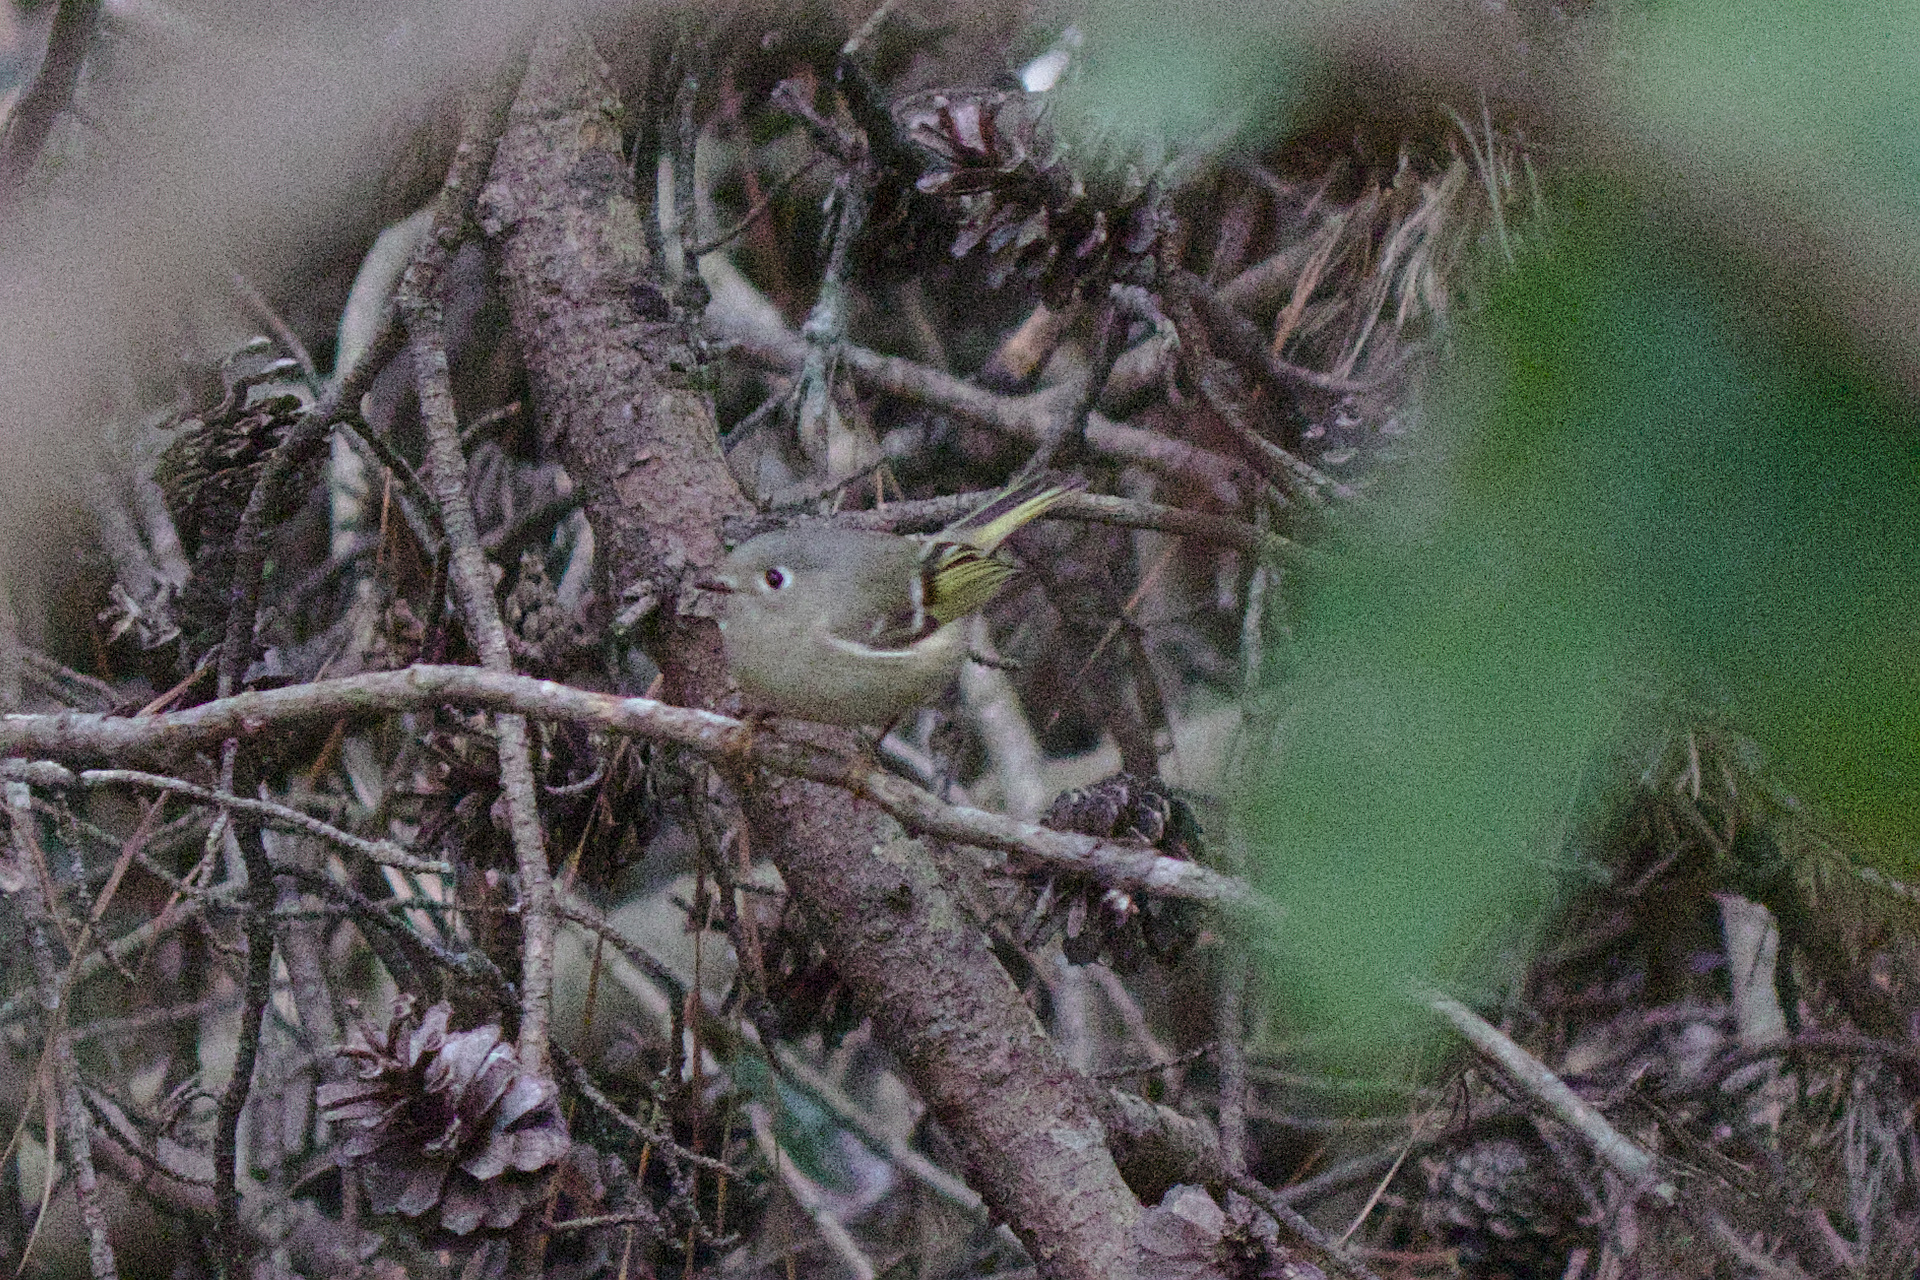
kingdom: Animalia
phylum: Chordata
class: Aves
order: Passeriformes
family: Regulidae
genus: Regulus
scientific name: Regulus calendula
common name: Ruby-crowned kinglet
